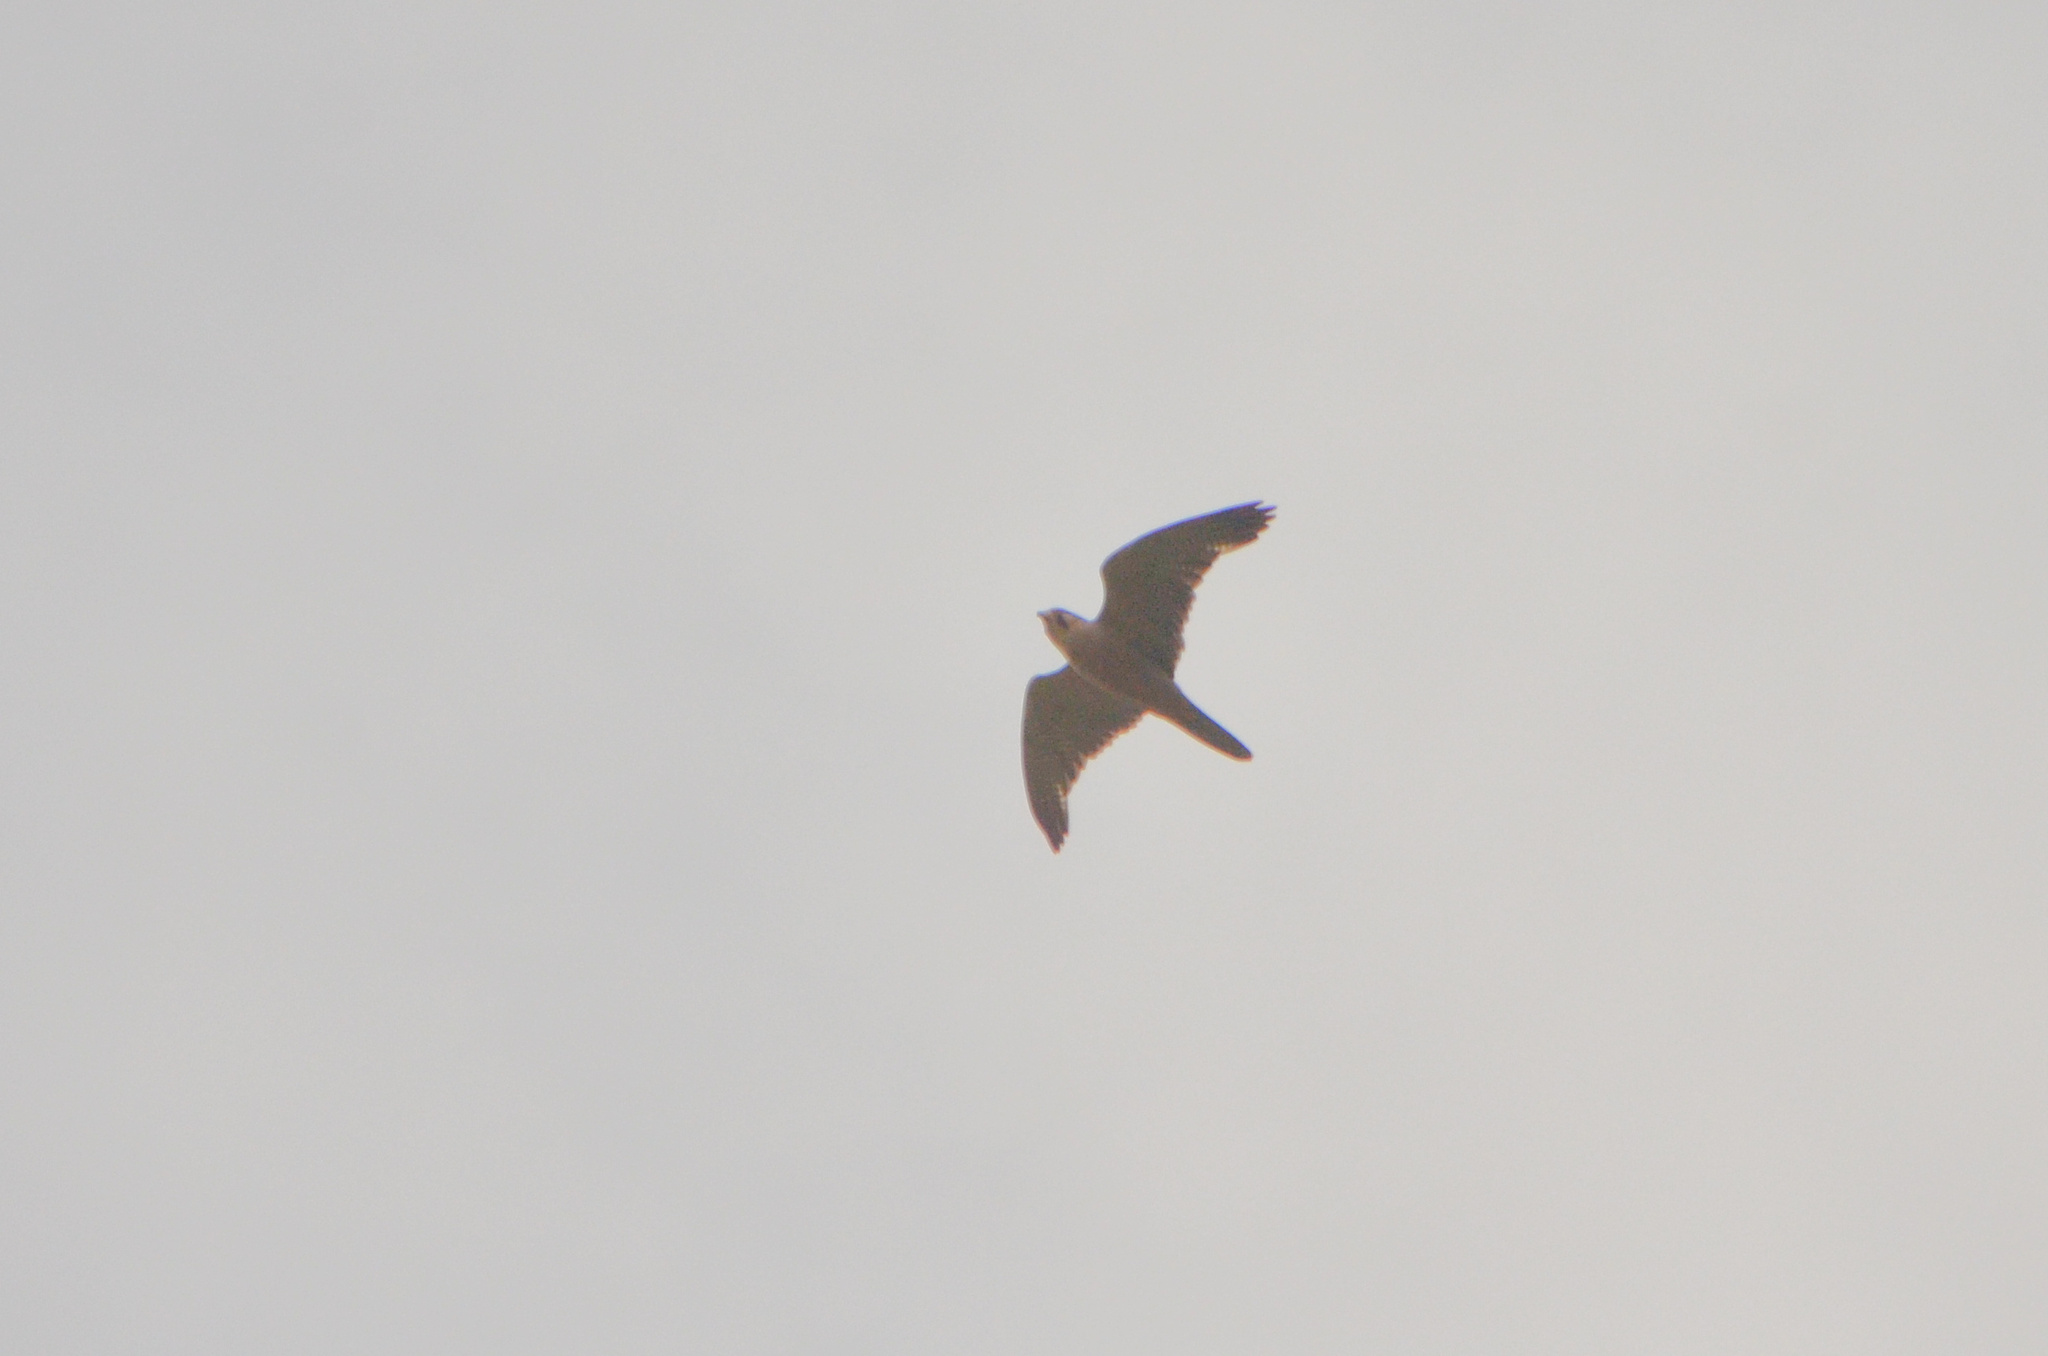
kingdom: Animalia
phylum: Chordata
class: Aves
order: Falconiformes
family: Falconidae
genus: Falco
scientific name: Falco biarmicus
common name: Lanner falcon
